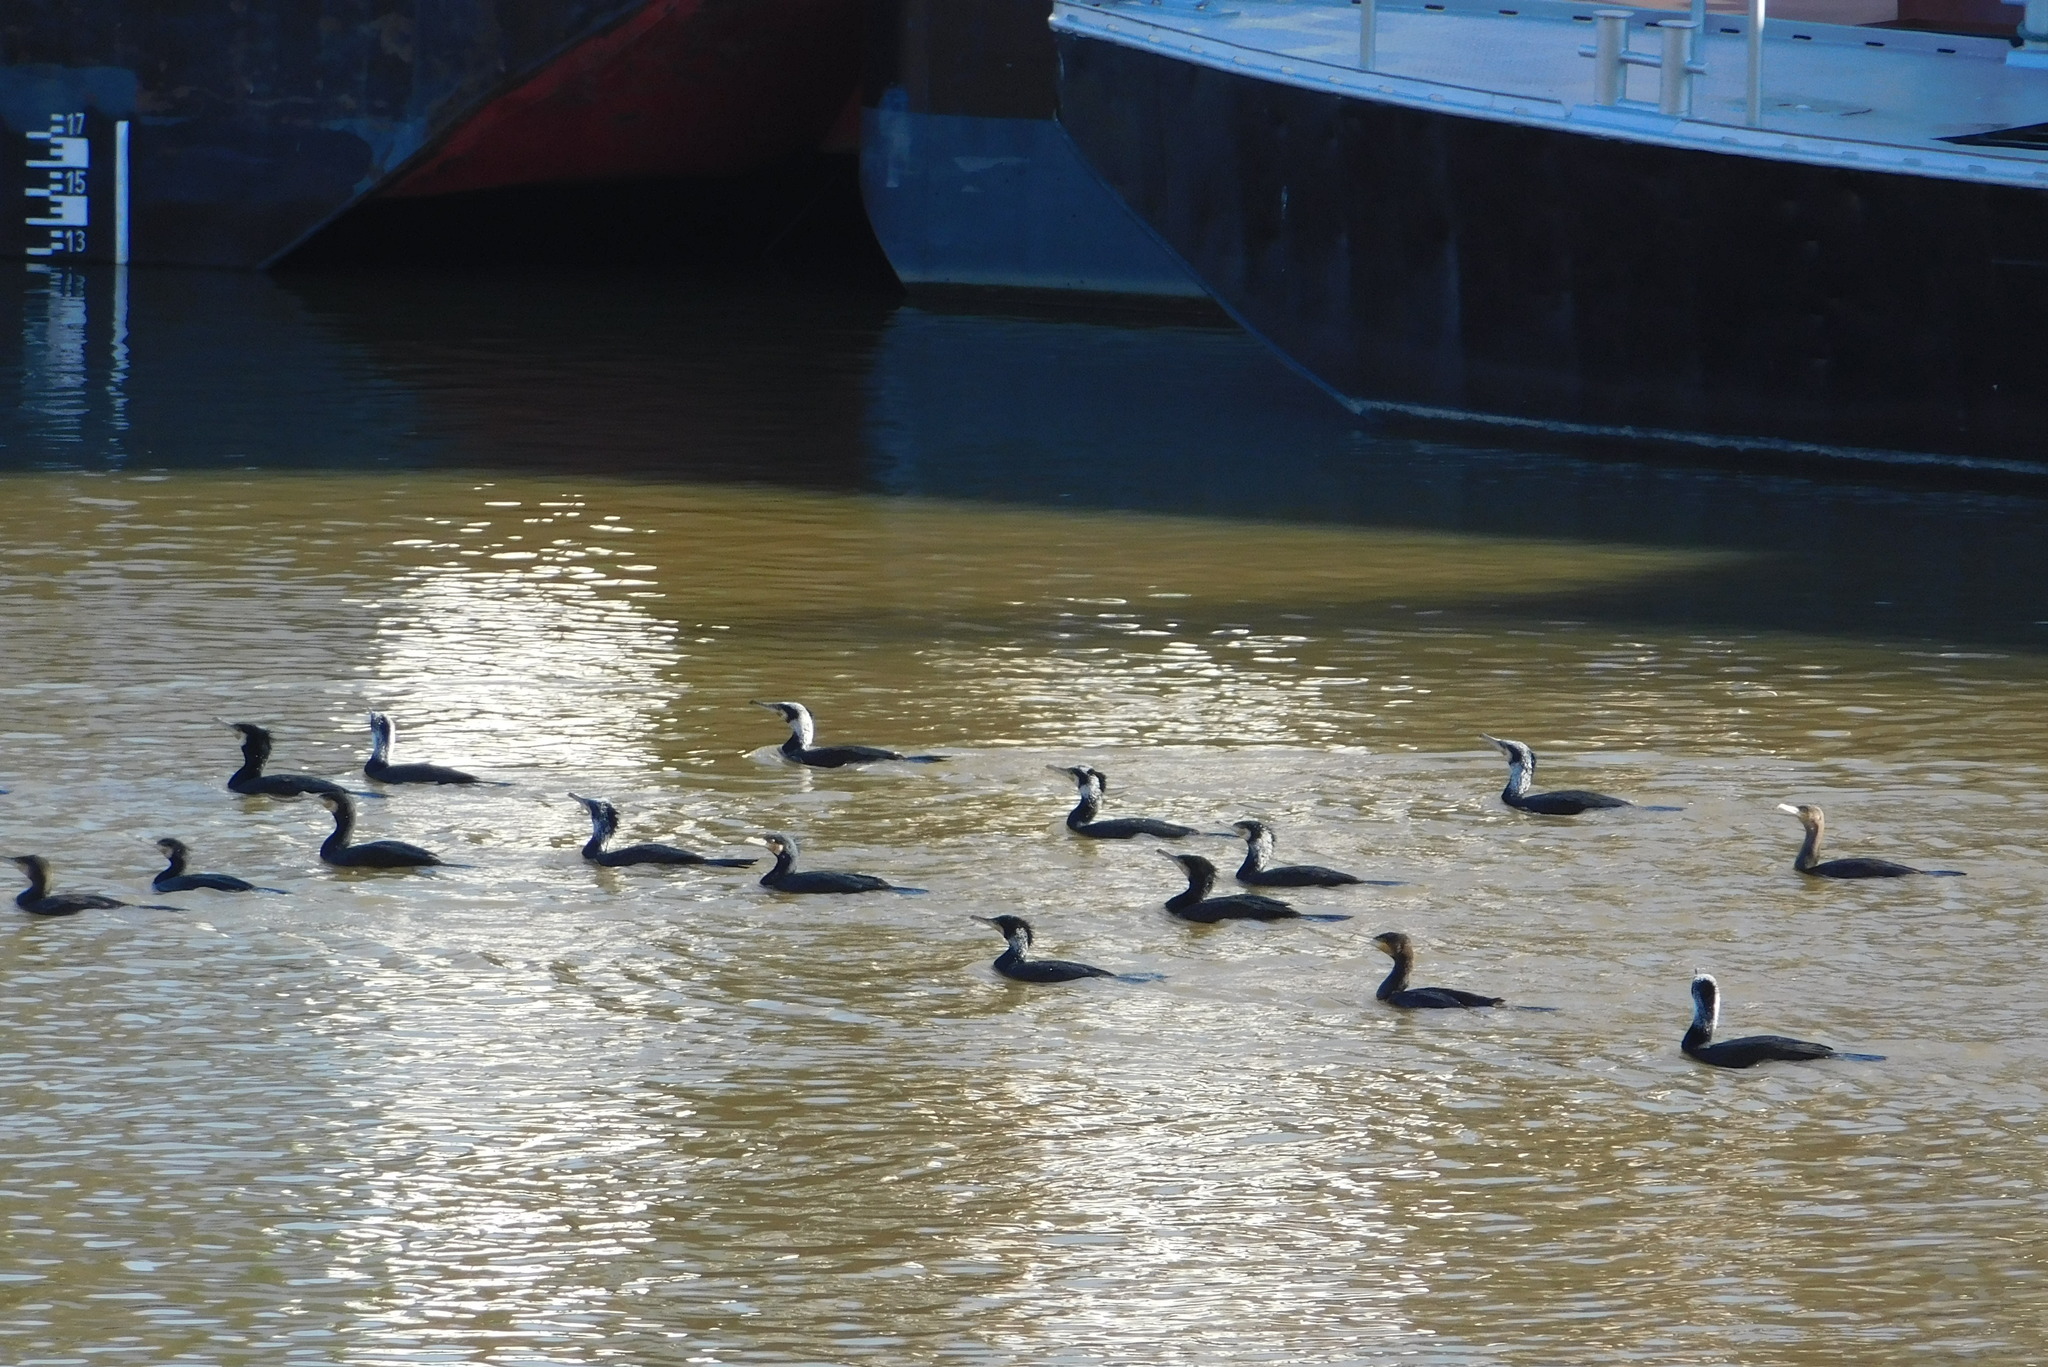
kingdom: Animalia
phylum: Chordata
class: Aves
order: Suliformes
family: Phalacrocoracidae
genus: Phalacrocorax
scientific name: Phalacrocorax carbo
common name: Great cormorant
